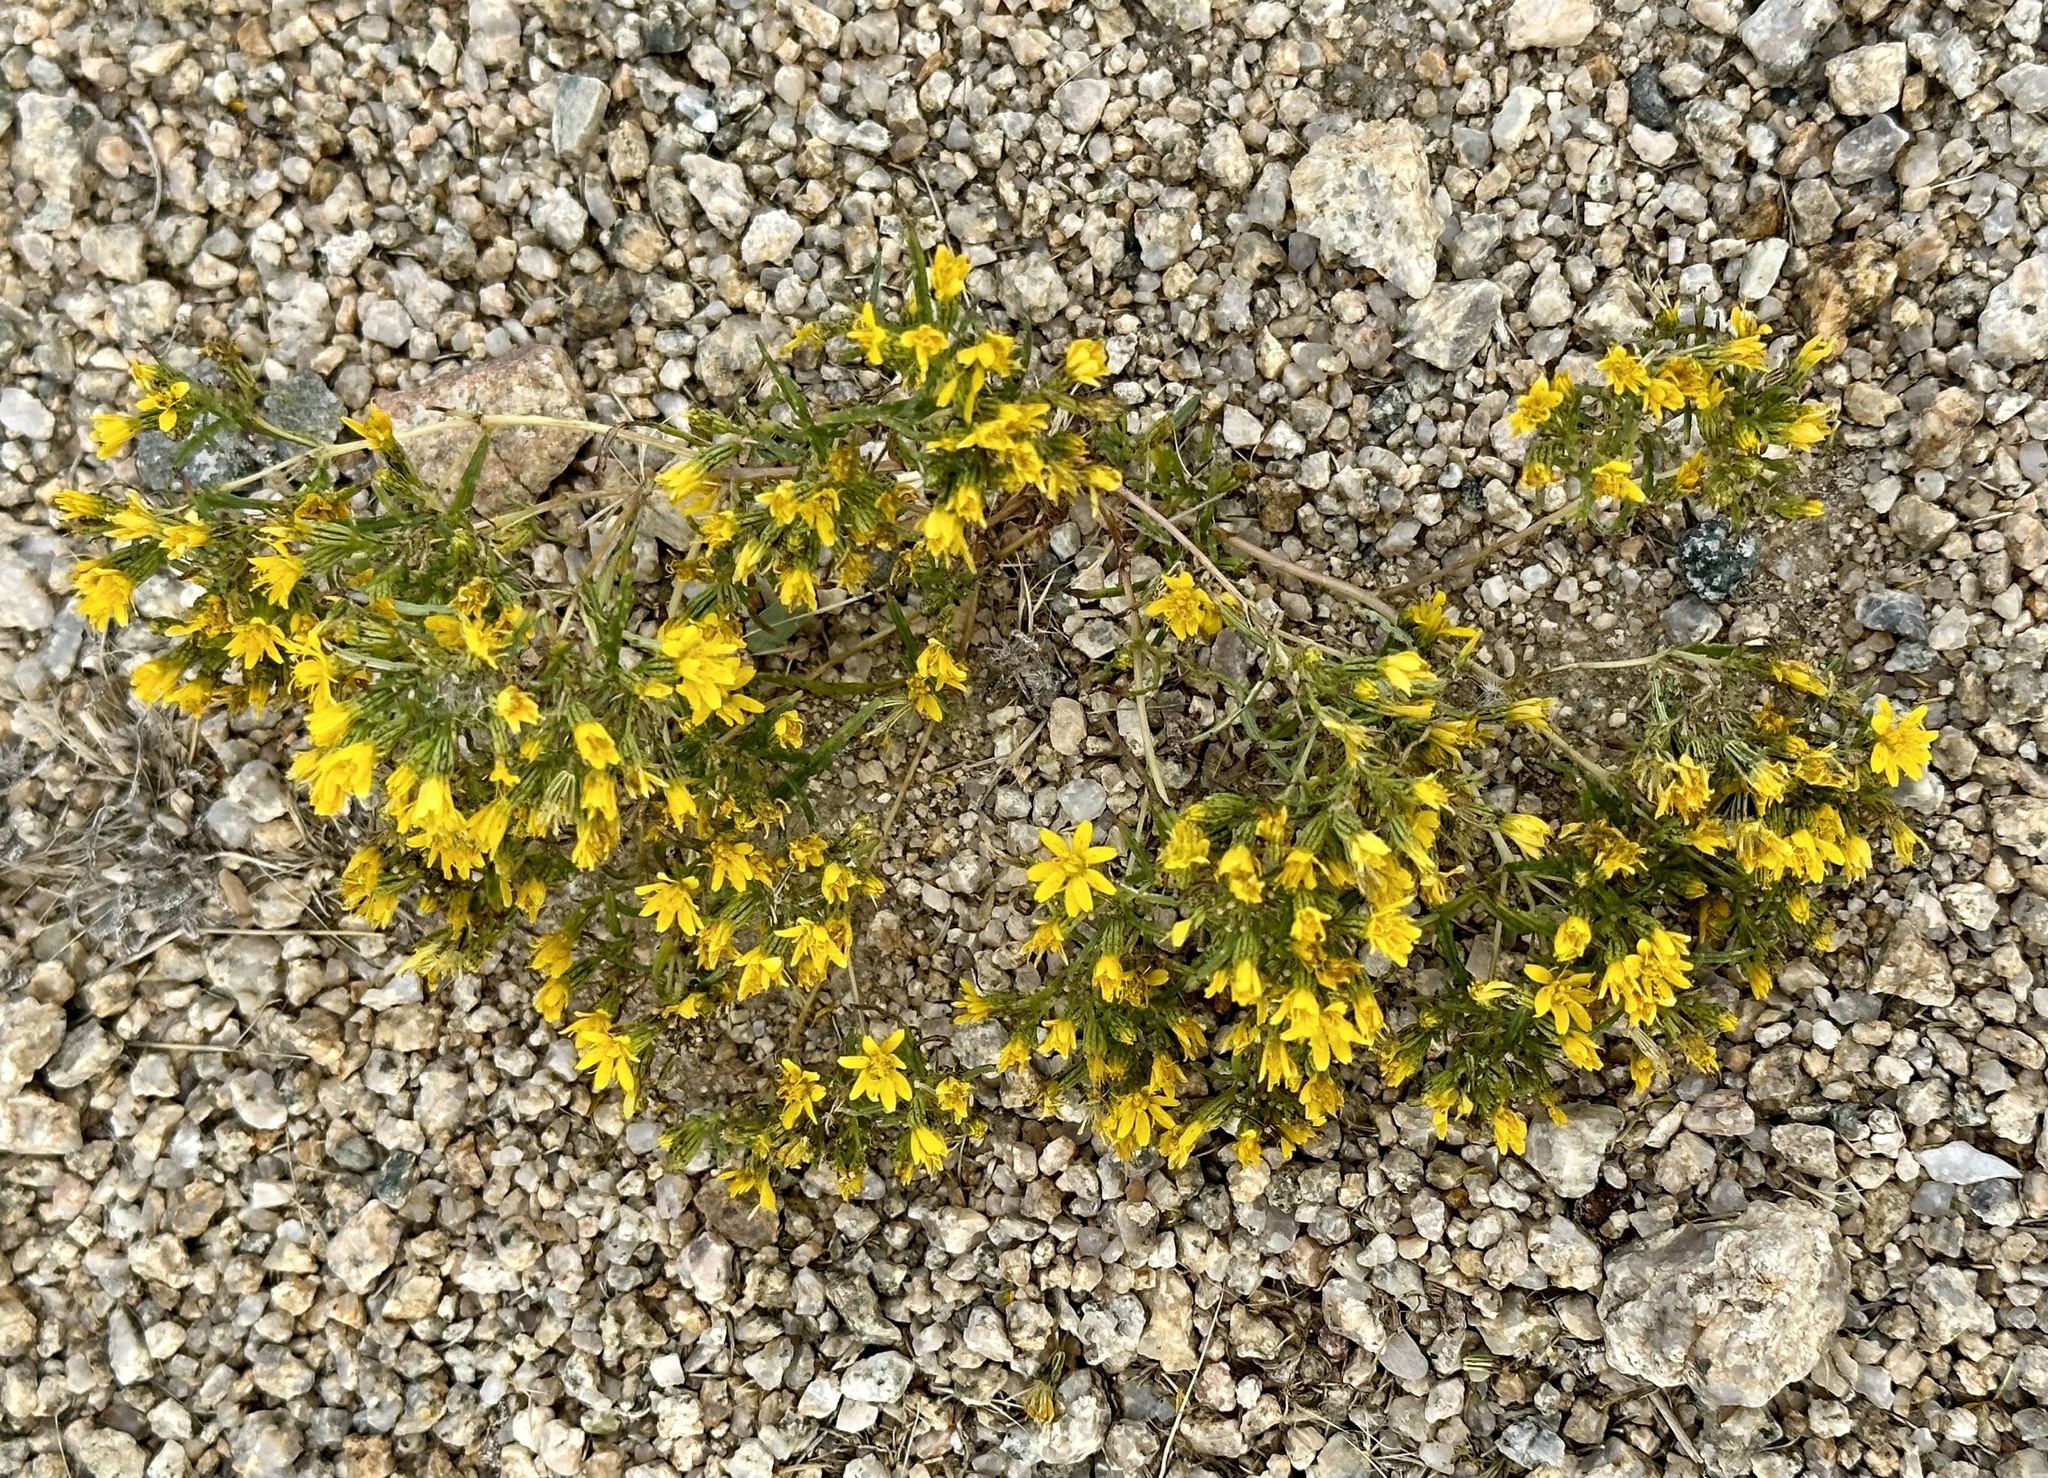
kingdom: Plantae
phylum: Tracheophyta
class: Magnoliopsida
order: Asterales
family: Asteraceae
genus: Pectis
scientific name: Pectis papposa
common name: Many-bristle chinchweed
